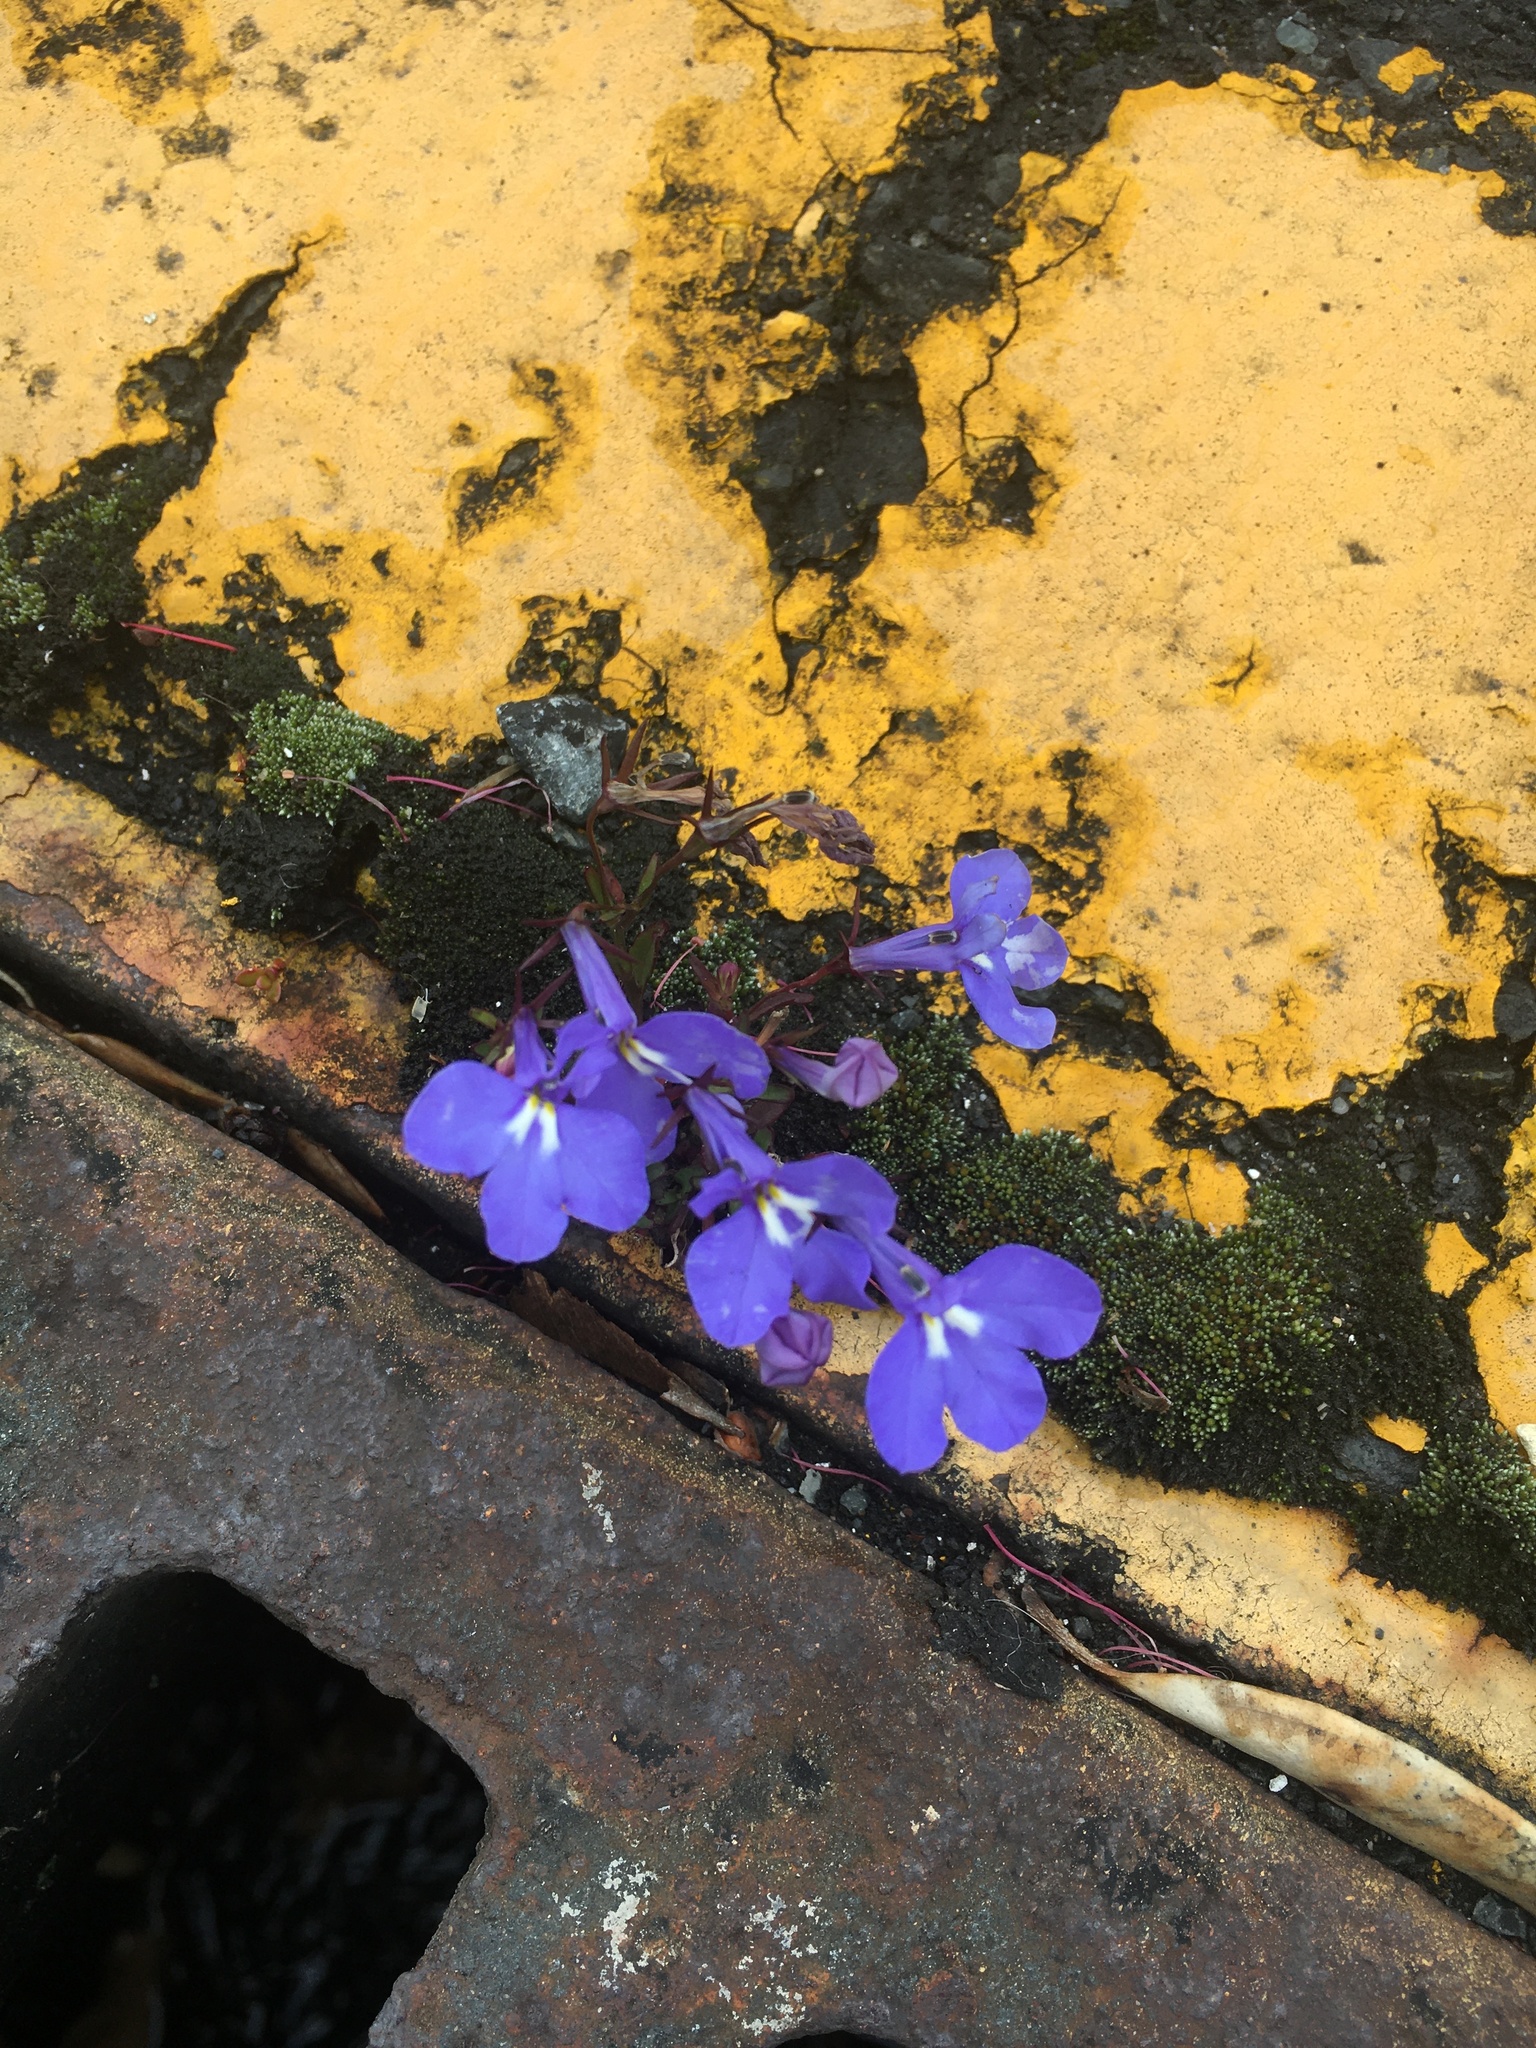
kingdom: Plantae
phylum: Tracheophyta
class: Magnoliopsida
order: Asterales
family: Campanulaceae
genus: Lobelia
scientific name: Lobelia erinus
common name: Edging lobelia
